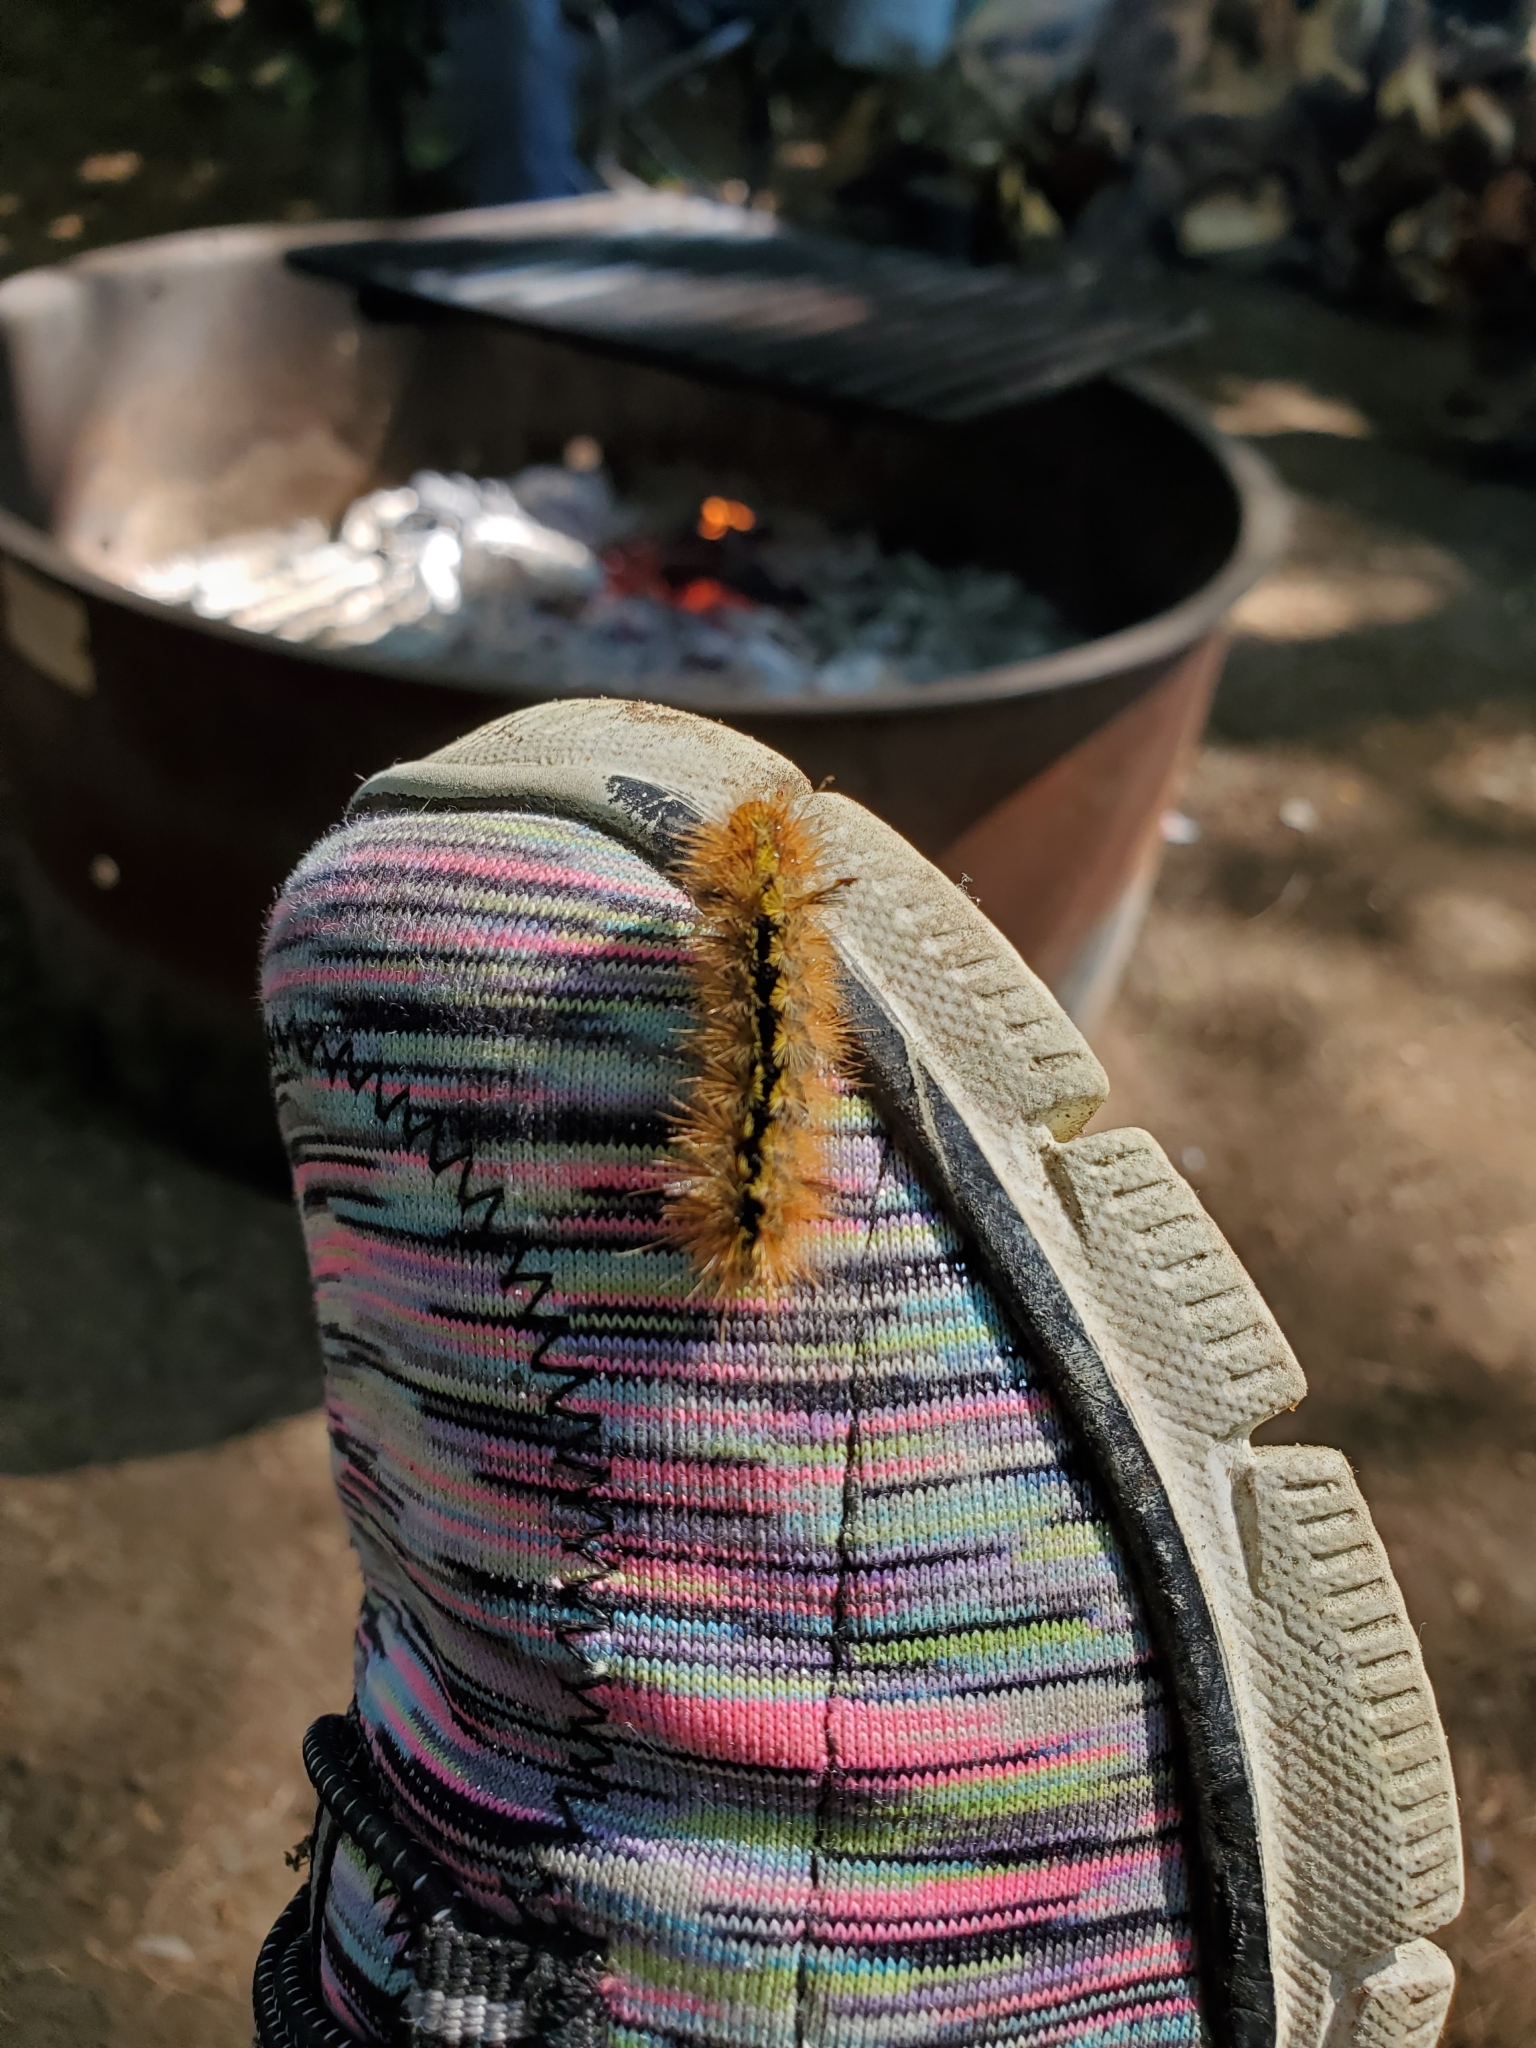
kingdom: Animalia
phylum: Arthropoda
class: Insecta
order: Lepidoptera
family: Erebidae
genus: Lophocampa
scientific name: Lophocampa argentata
